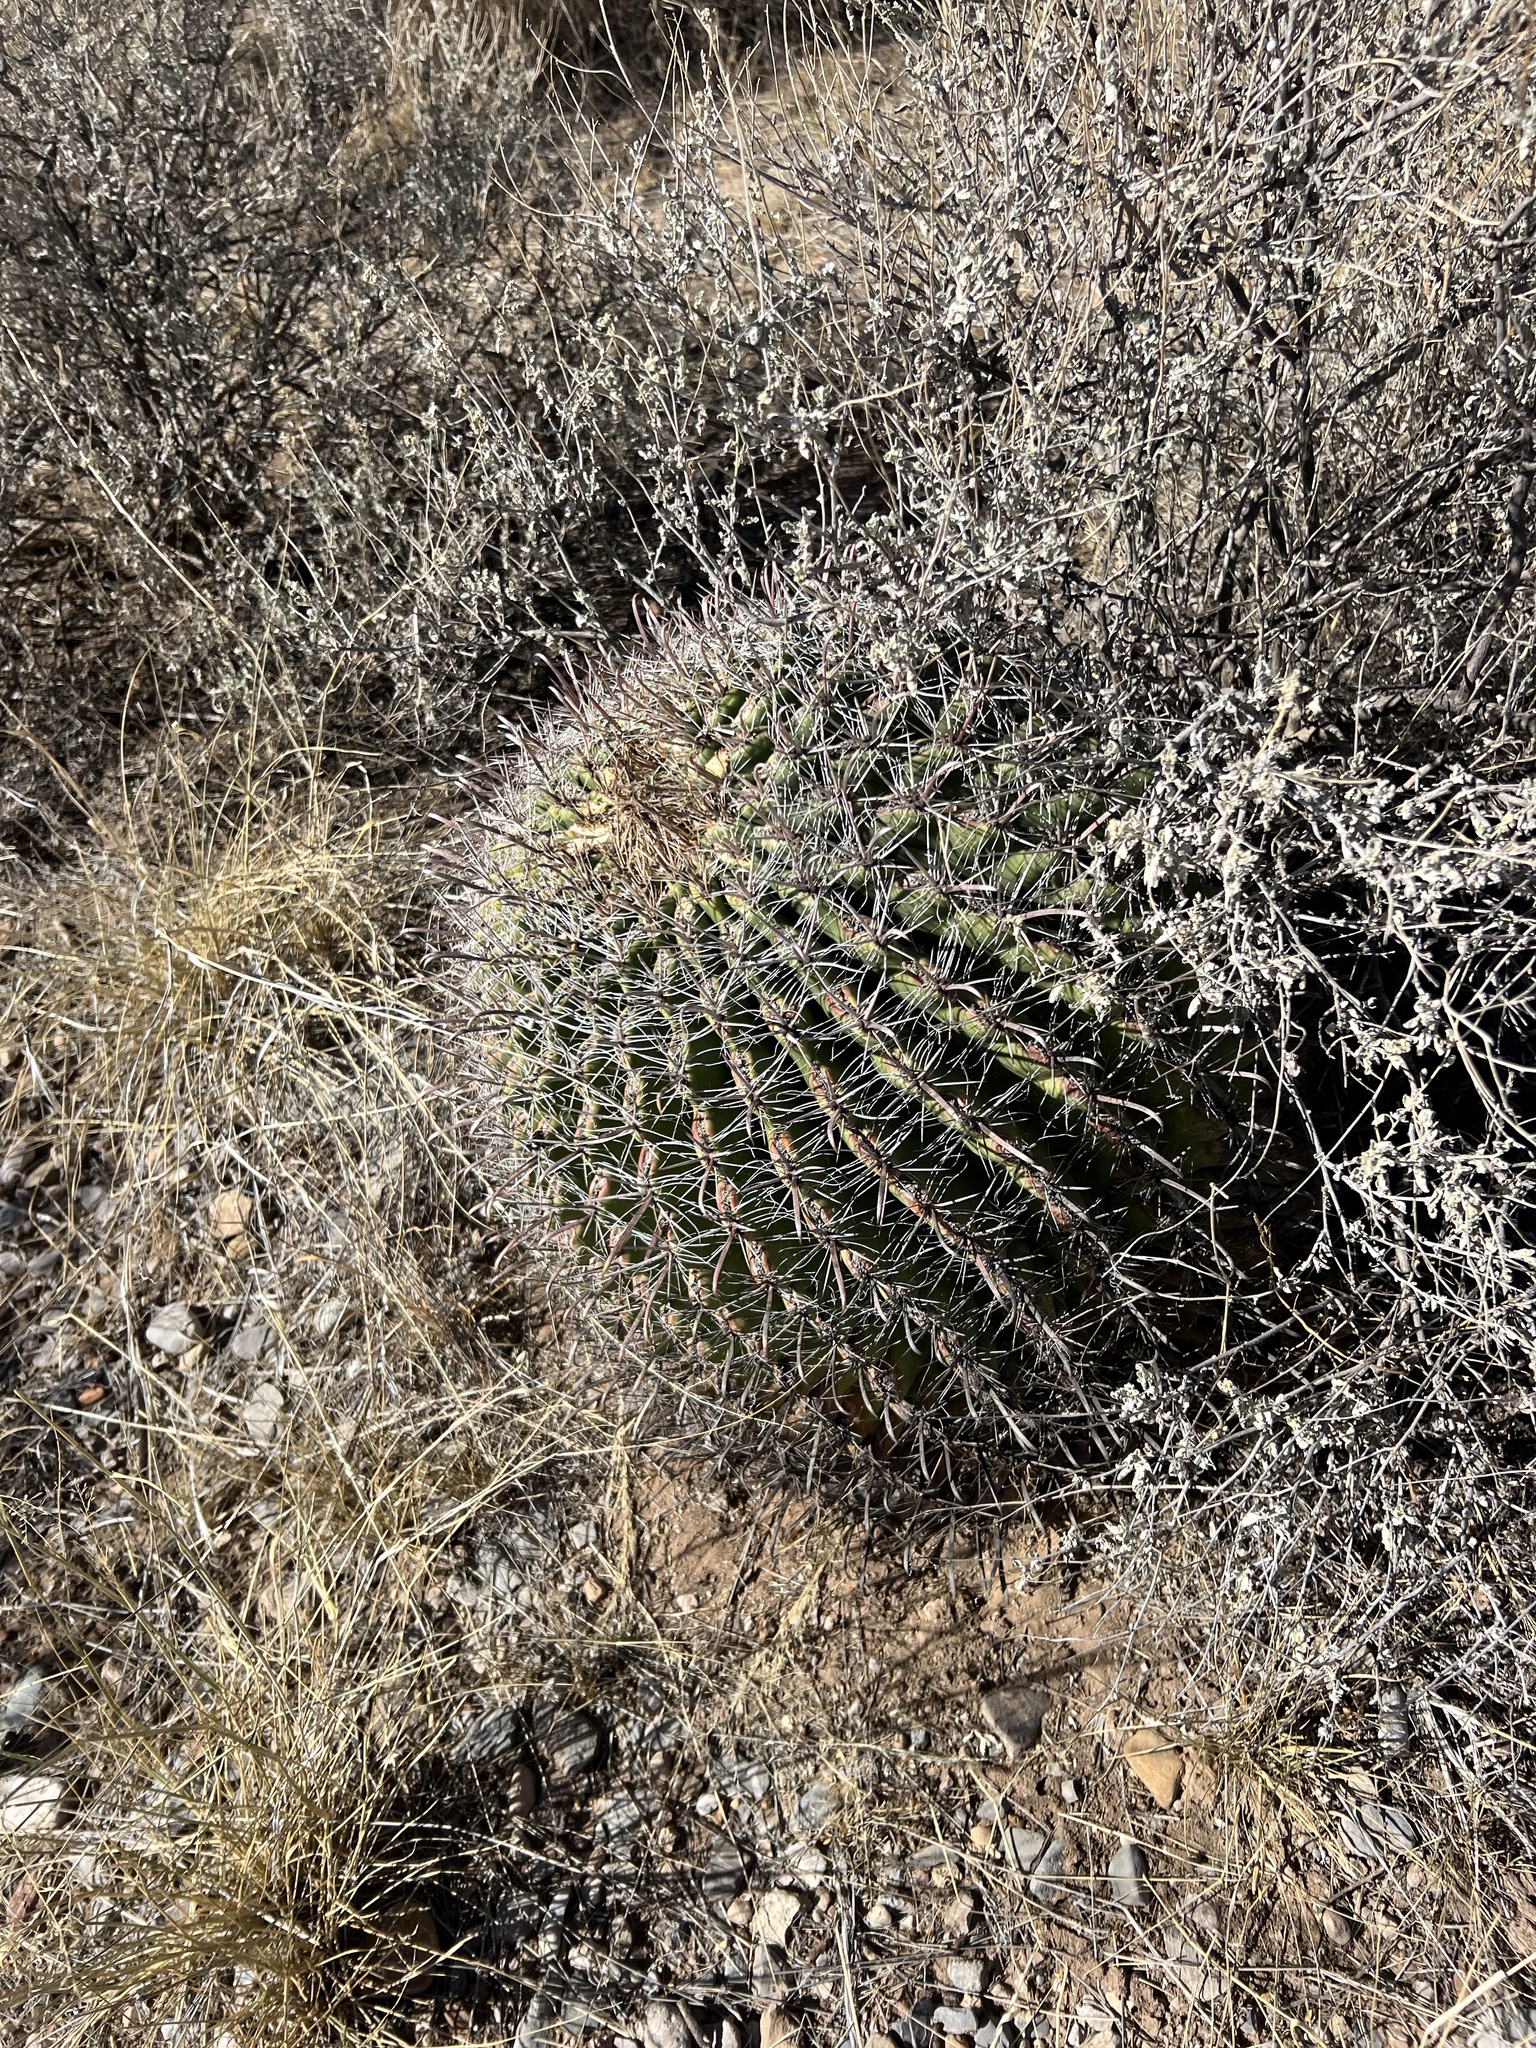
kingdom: Plantae
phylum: Tracheophyta
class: Magnoliopsida
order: Caryophyllales
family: Cactaceae
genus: Ferocactus
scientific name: Ferocactus wislizeni
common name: Candy barrel cactus
